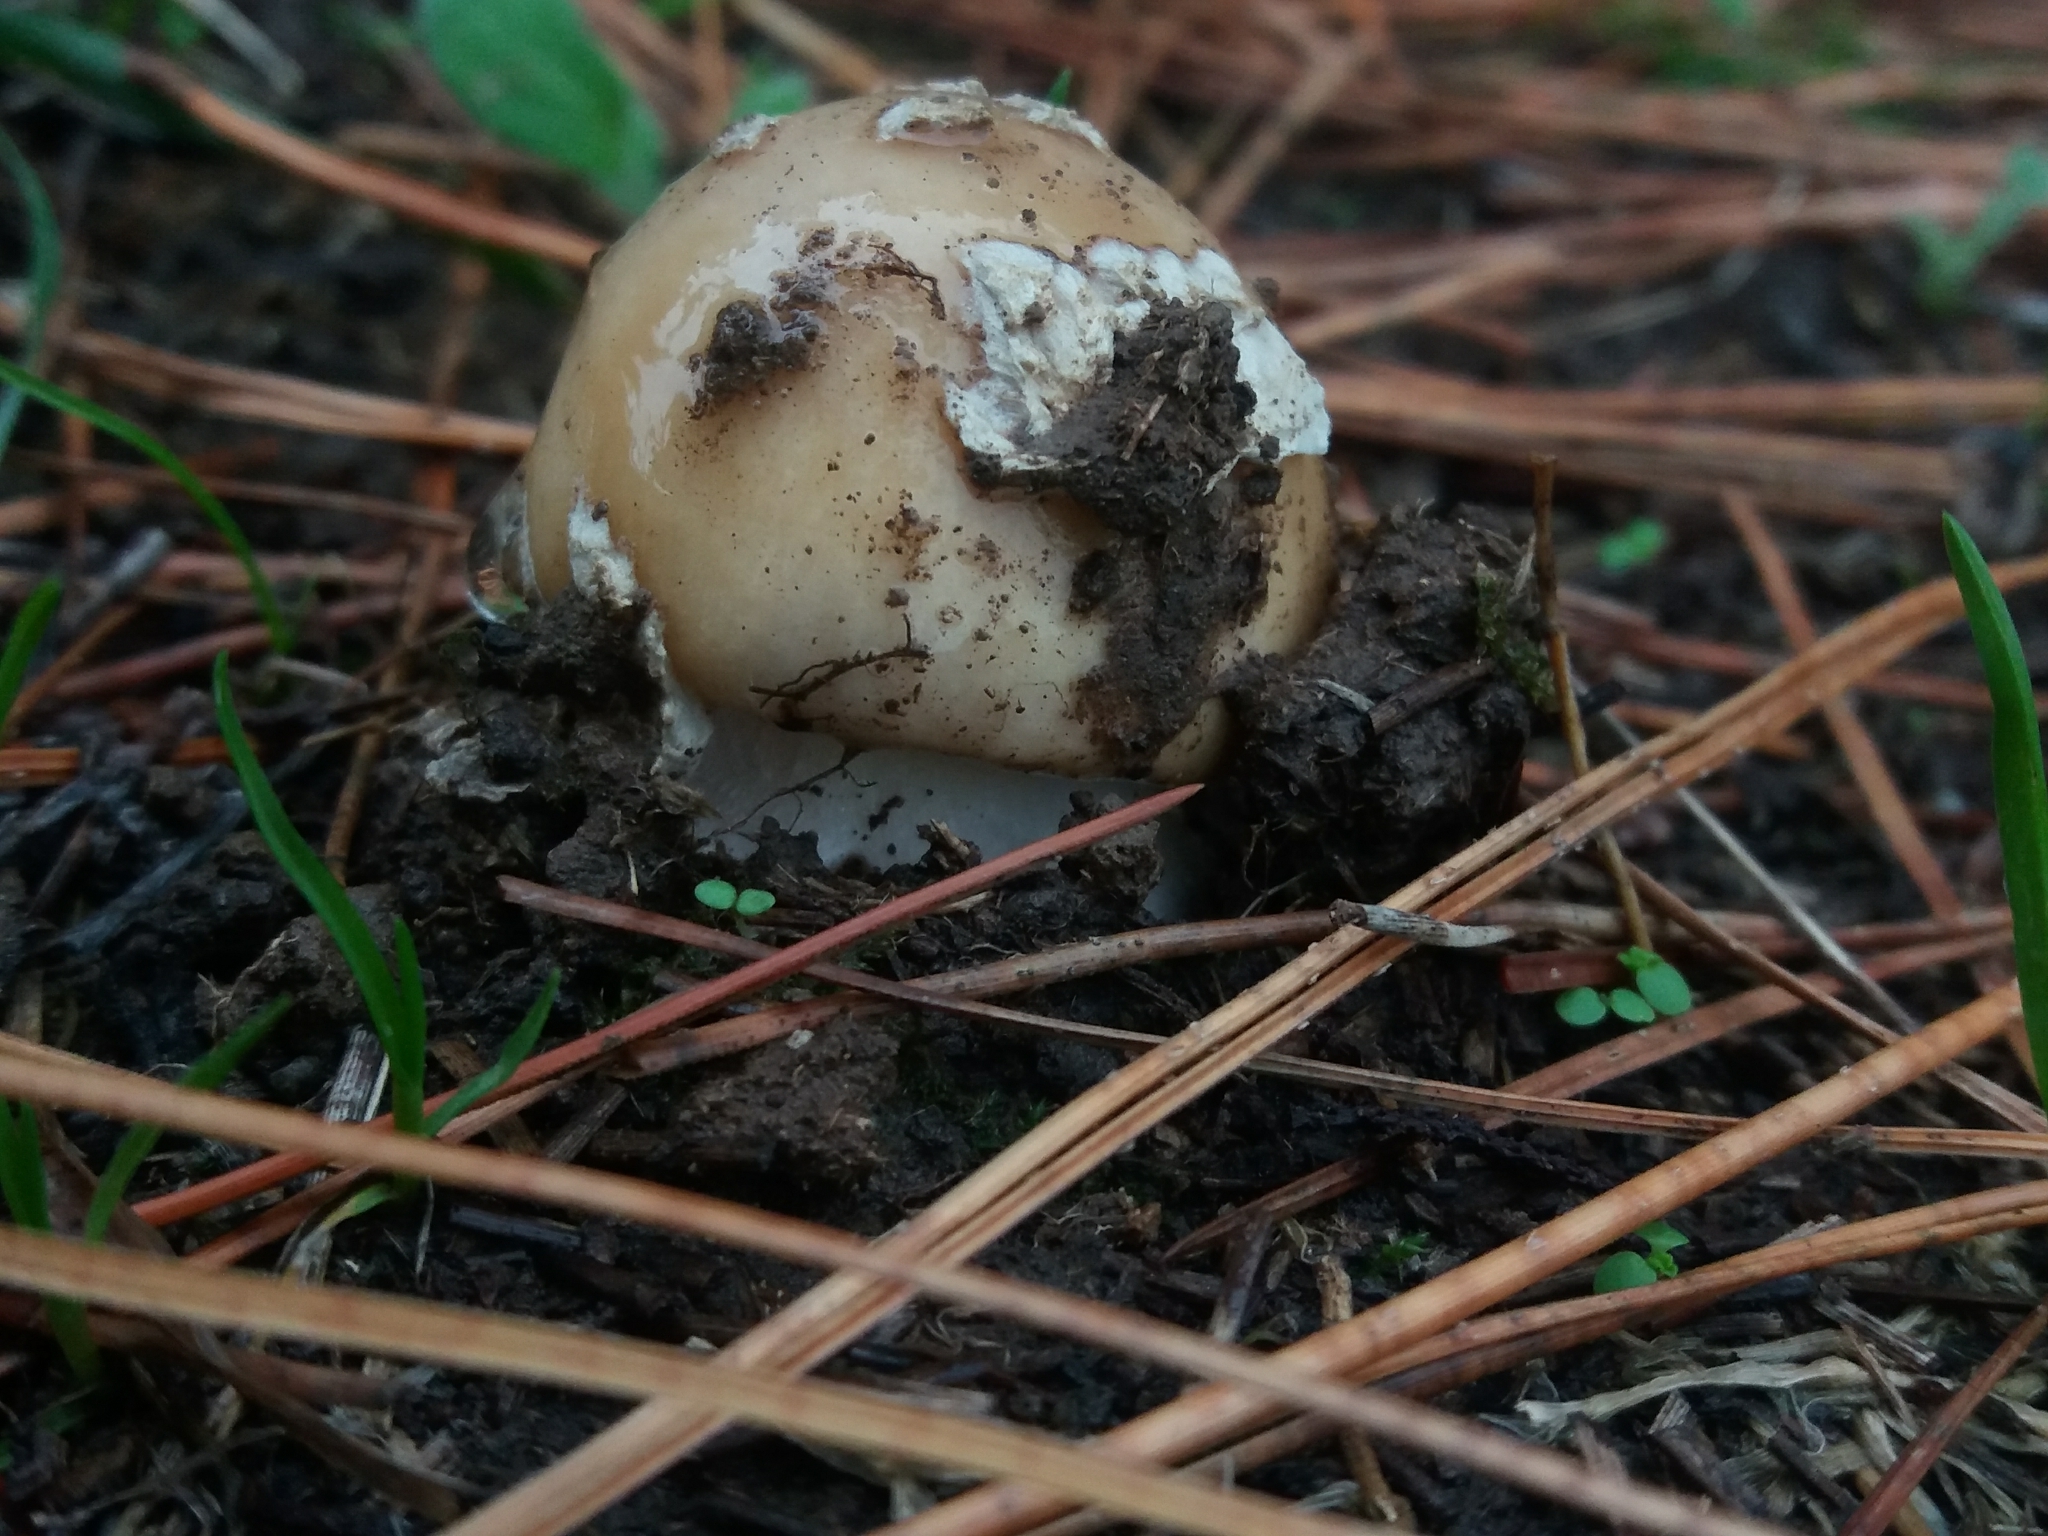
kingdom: Fungi
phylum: Basidiomycota
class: Agaricomycetes
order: Agaricales
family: Amanitaceae
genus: Amanita
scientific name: Amanita gemmata
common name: Jewelled amanita
